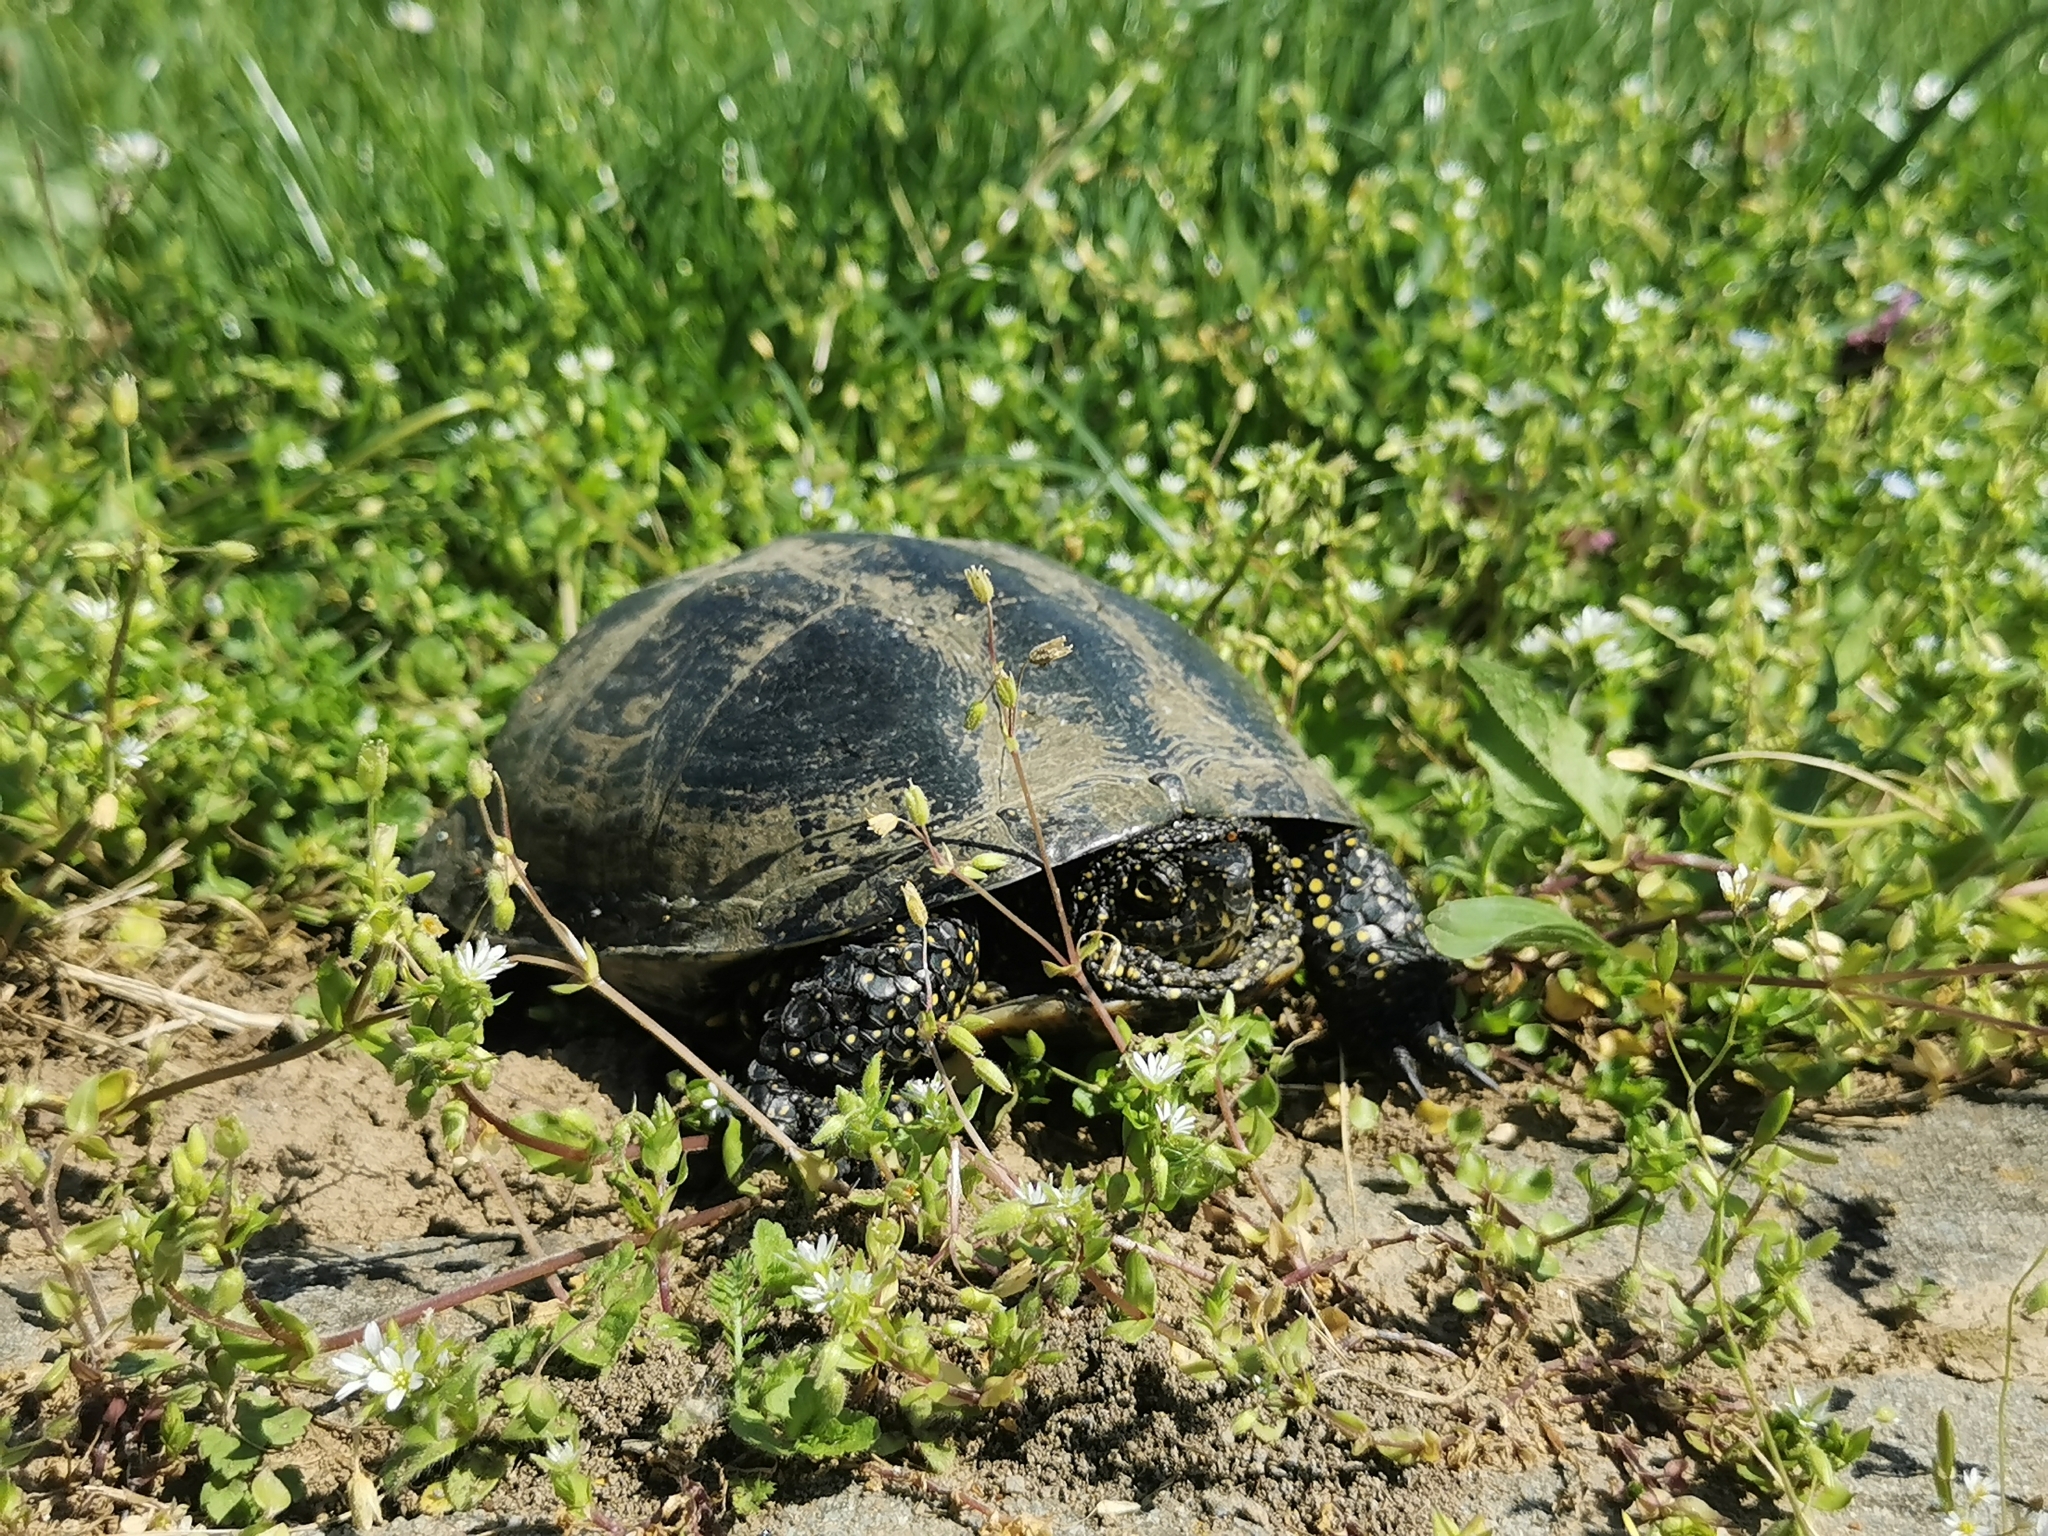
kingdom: Animalia
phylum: Chordata
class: Testudines
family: Emydidae
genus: Emys
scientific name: Emys orbicularis
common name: European pond turtle
